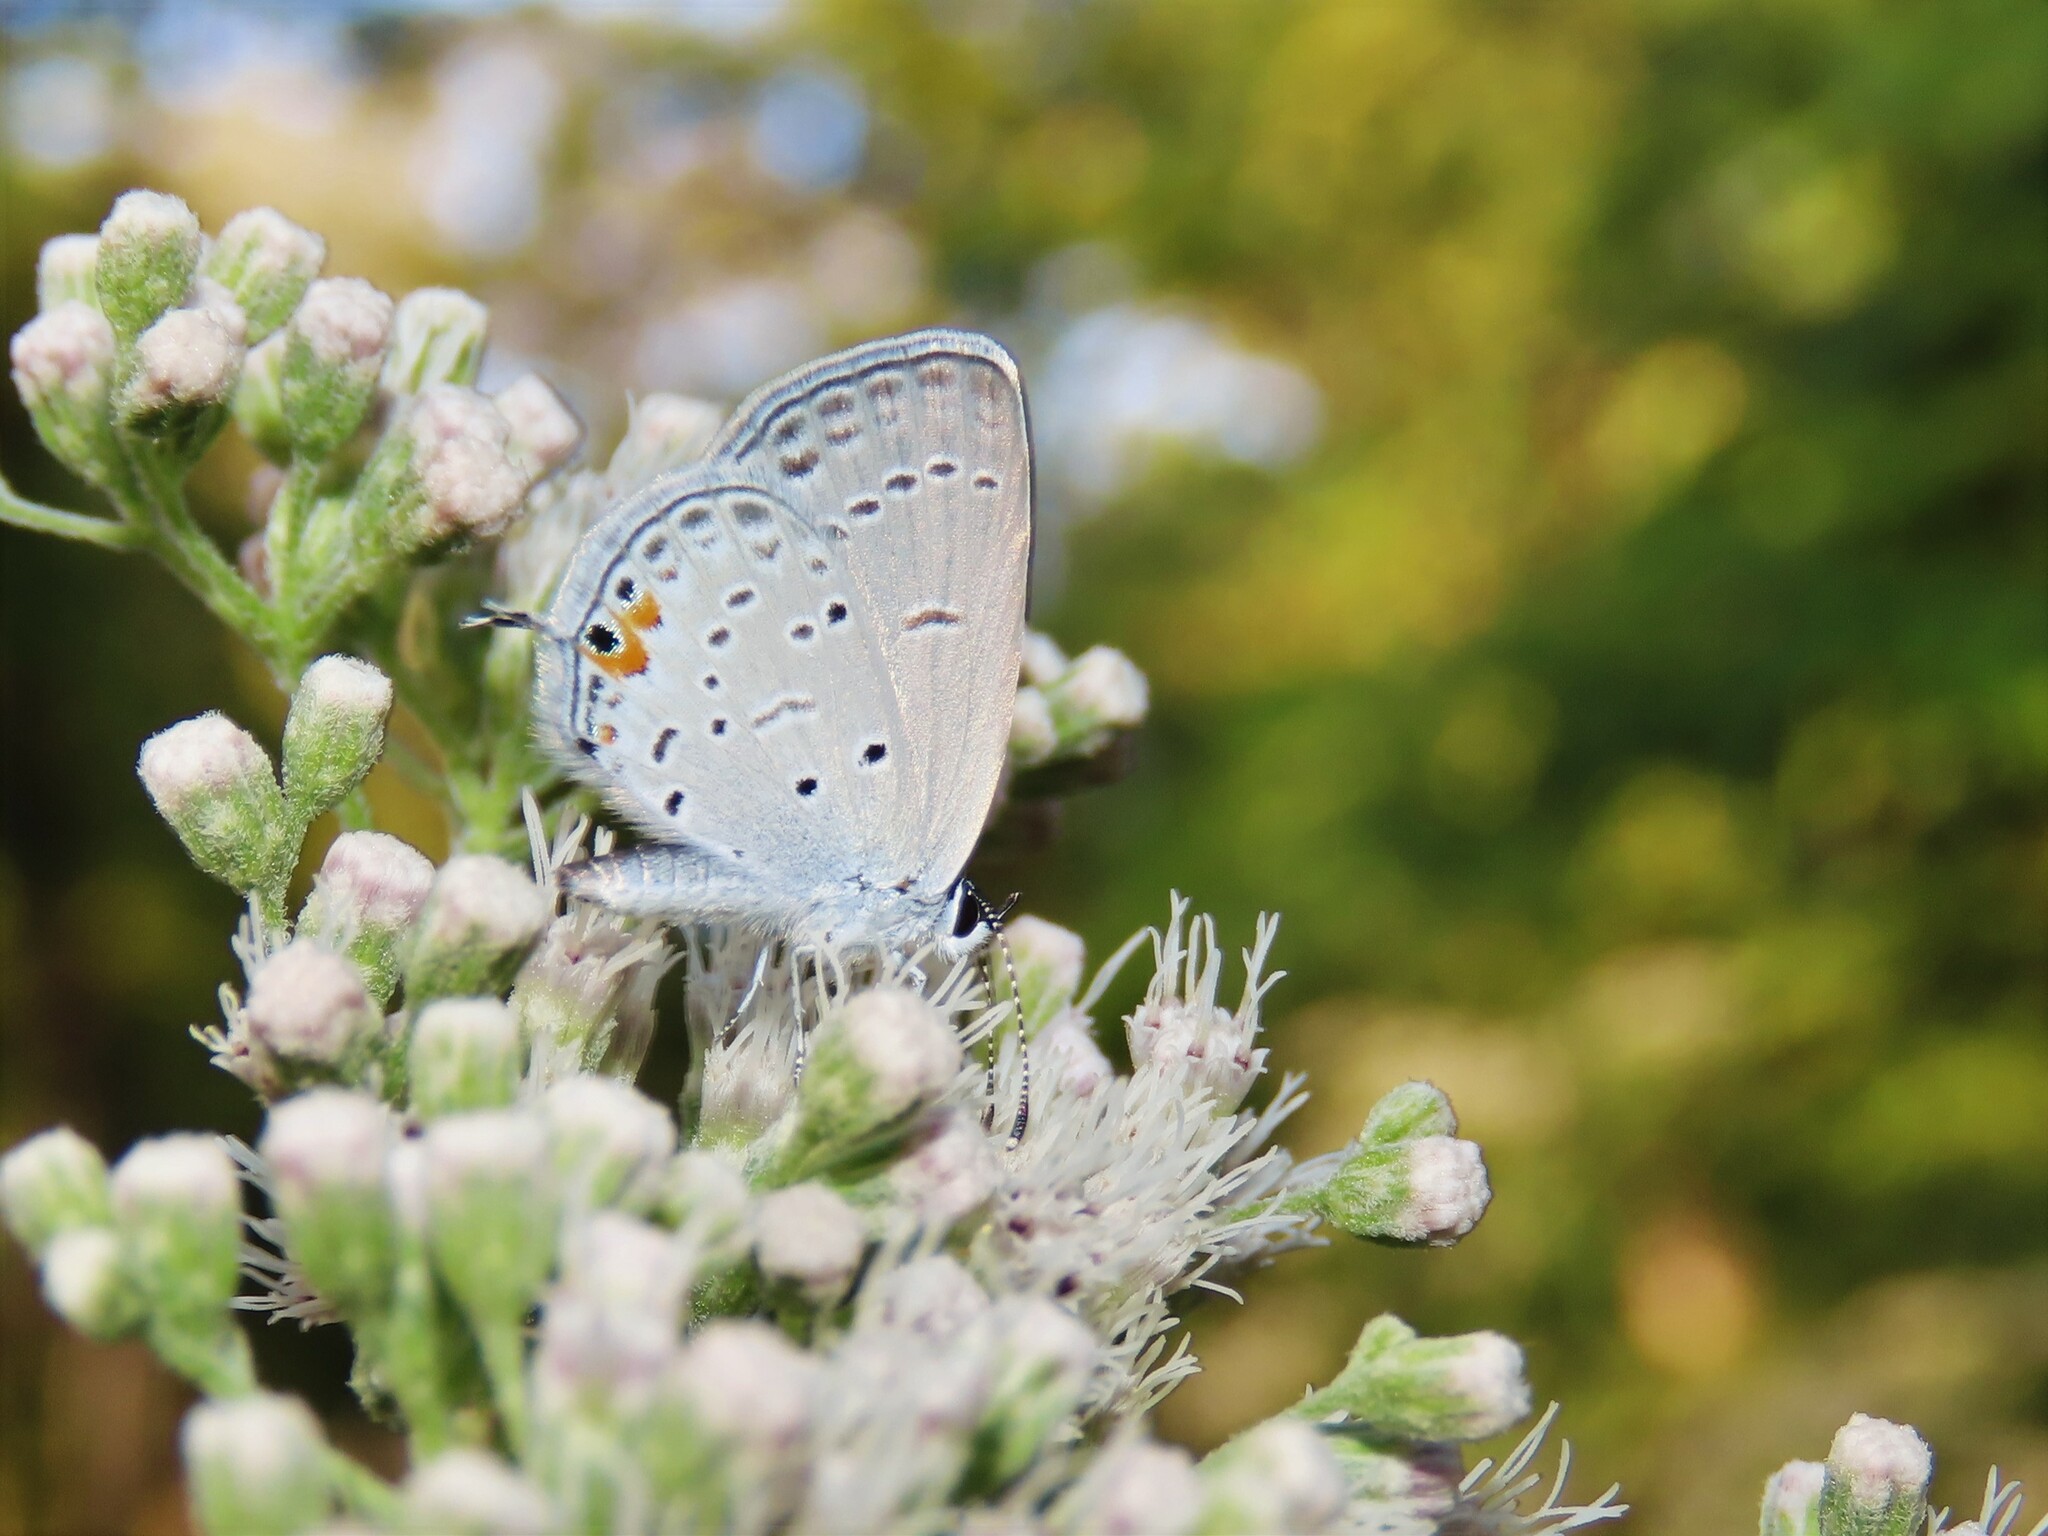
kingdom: Animalia
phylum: Arthropoda
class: Insecta
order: Lepidoptera
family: Lycaenidae
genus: Elkalyce
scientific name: Elkalyce comyntas
